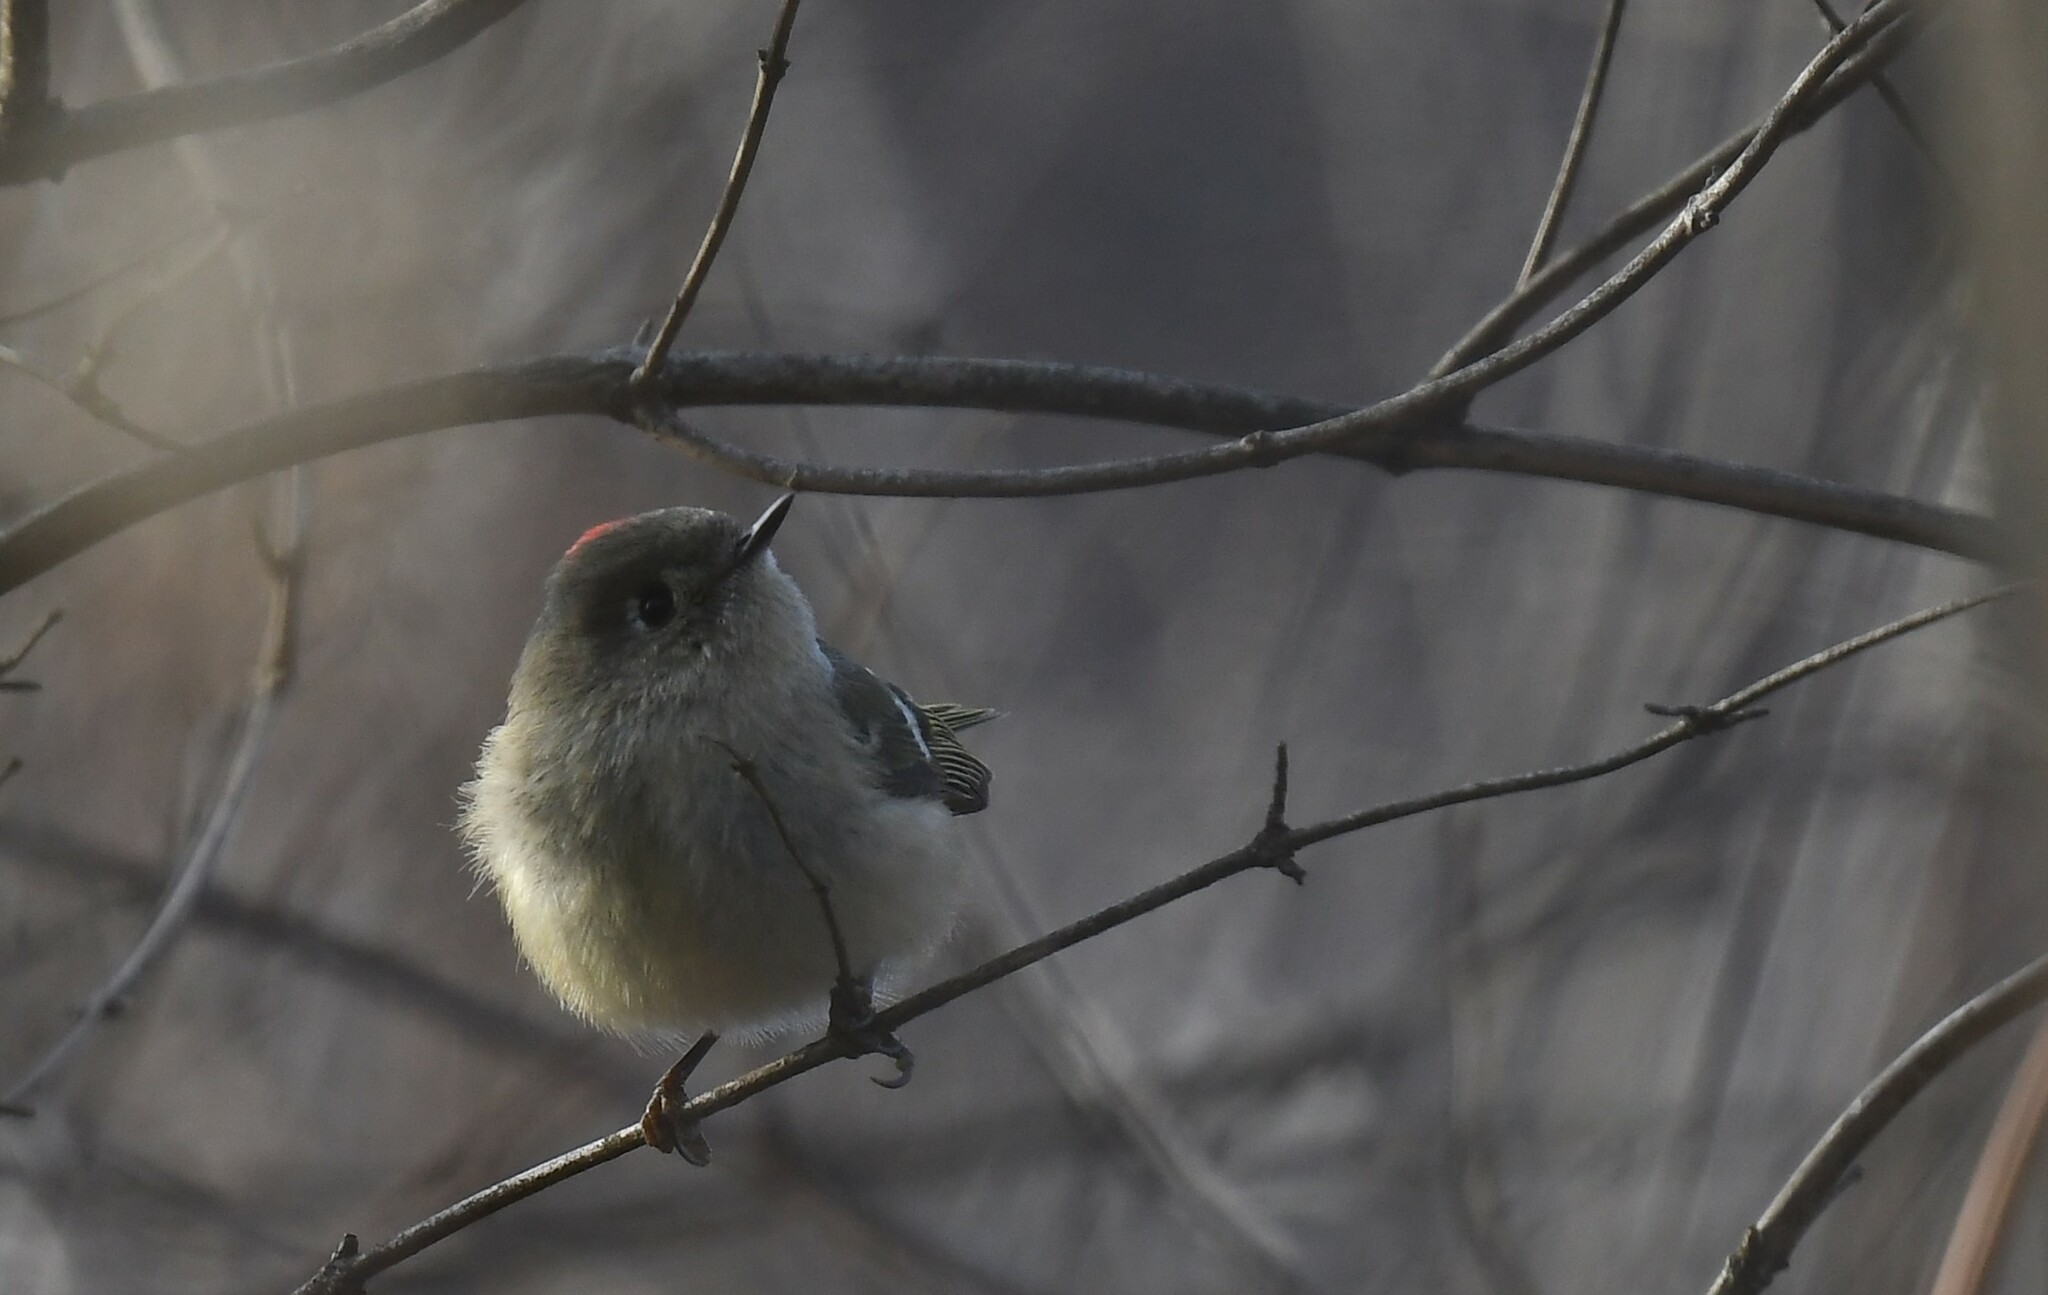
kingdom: Animalia
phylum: Chordata
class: Aves
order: Passeriformes
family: Regulidae
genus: Regulus
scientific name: Regulus calendula
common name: Ruby-crowned kinglet
